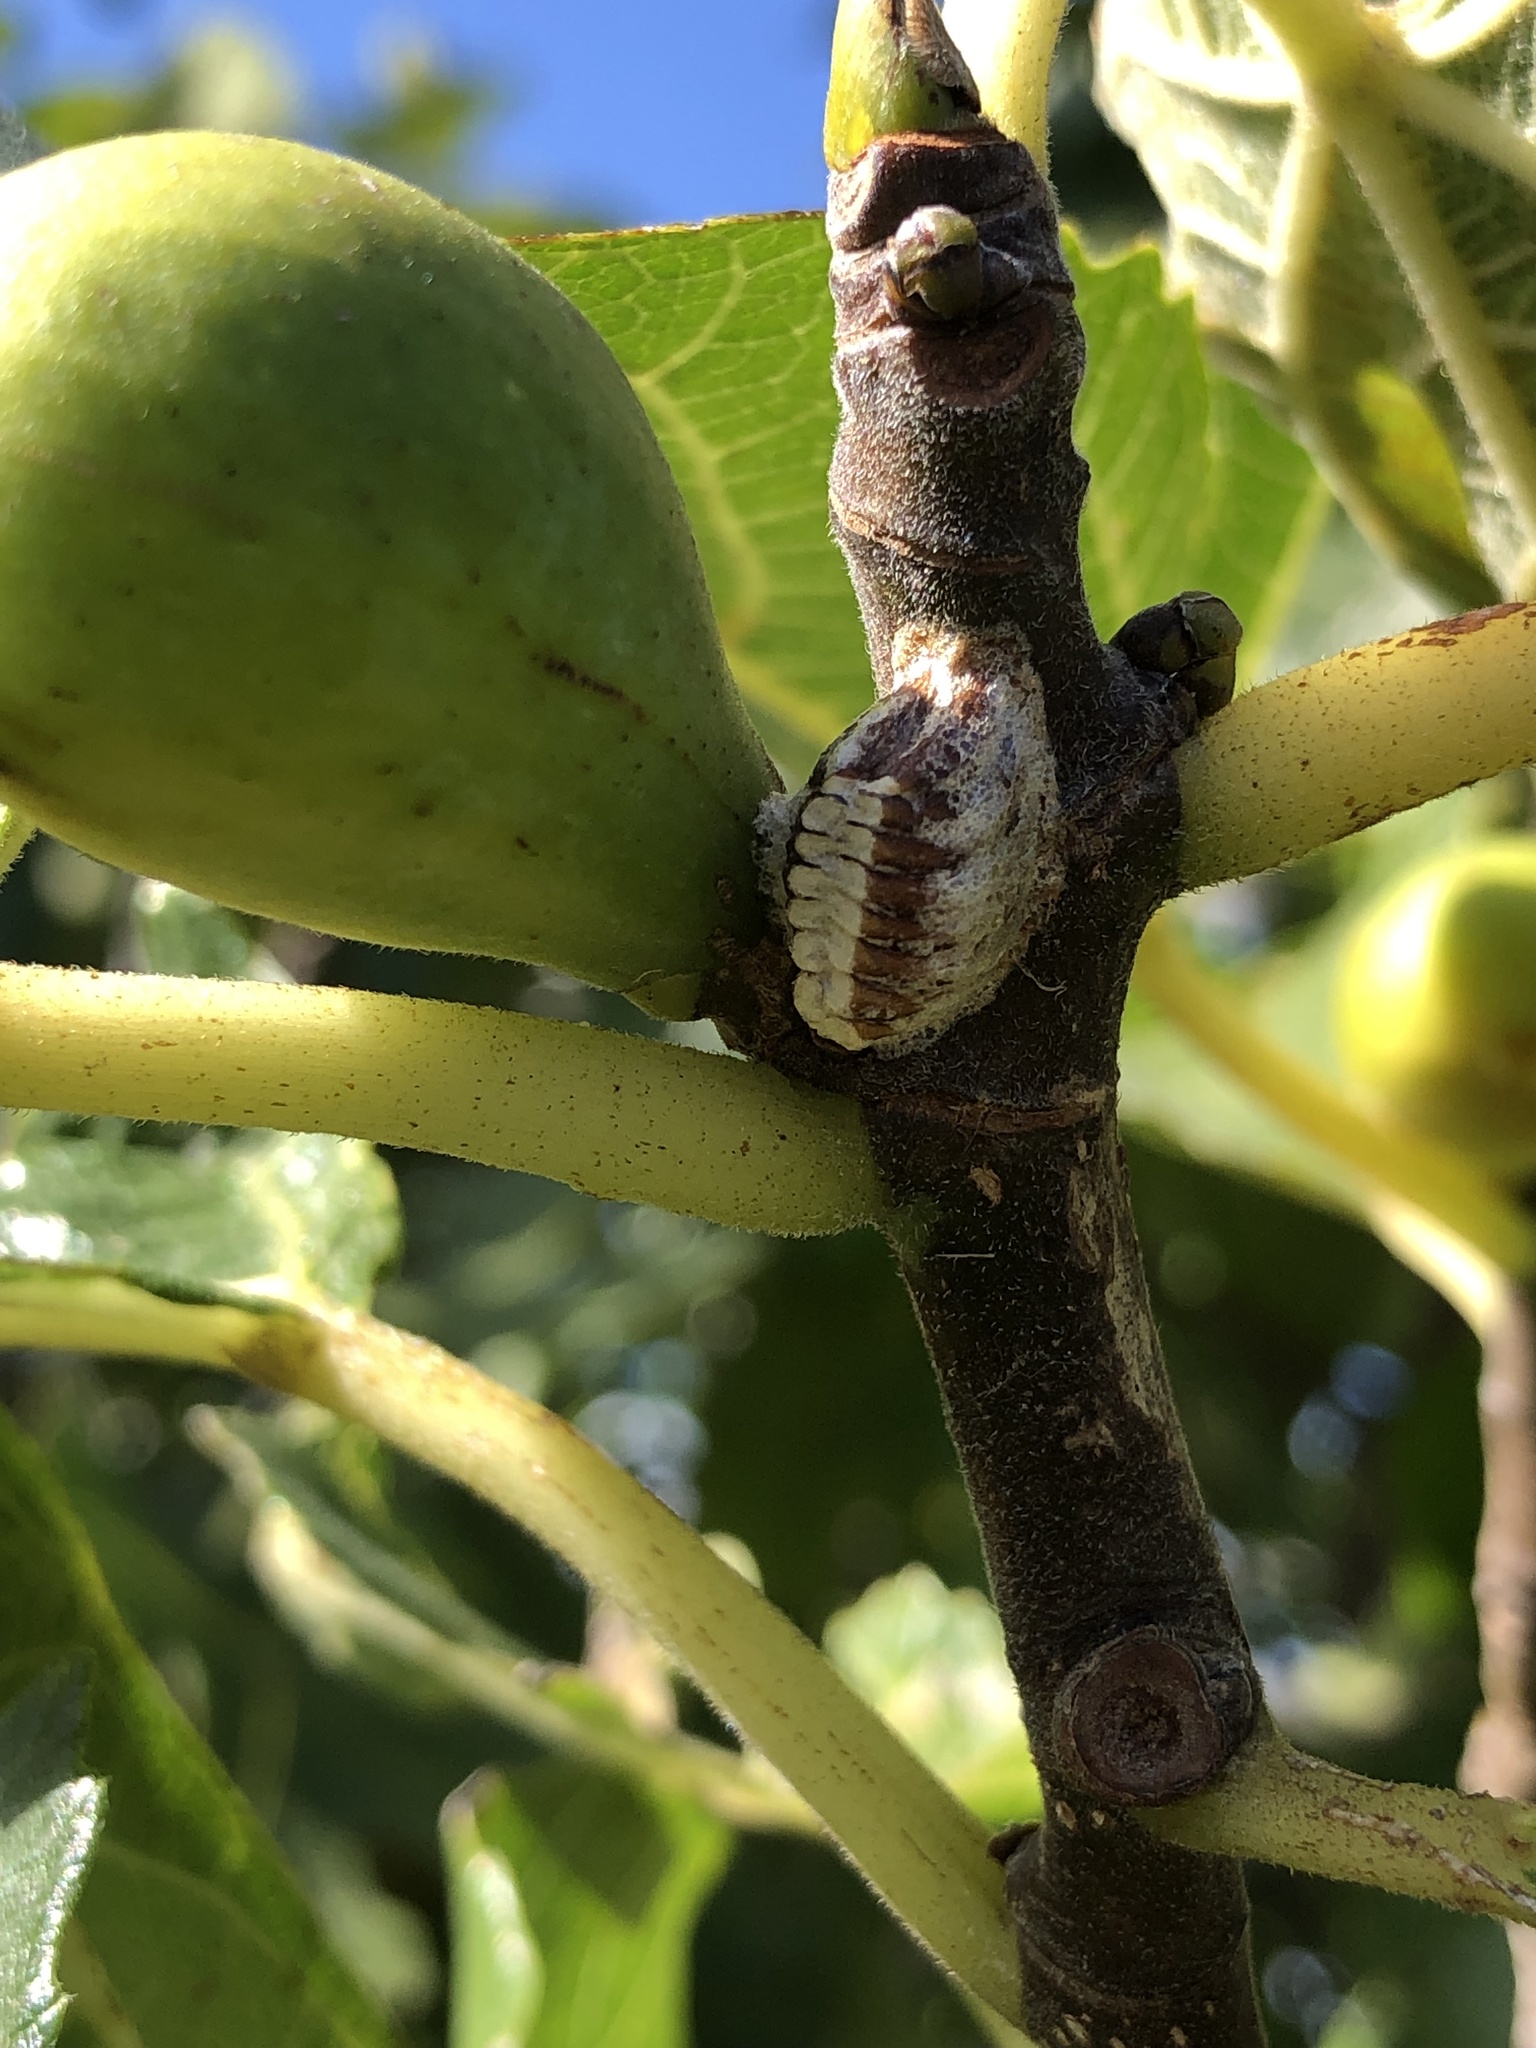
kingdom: Animalia
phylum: Arthropoda
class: Insecta
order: Mantodea
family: Mantidae
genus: Orthodera
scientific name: Orthodera novaezealandiae
